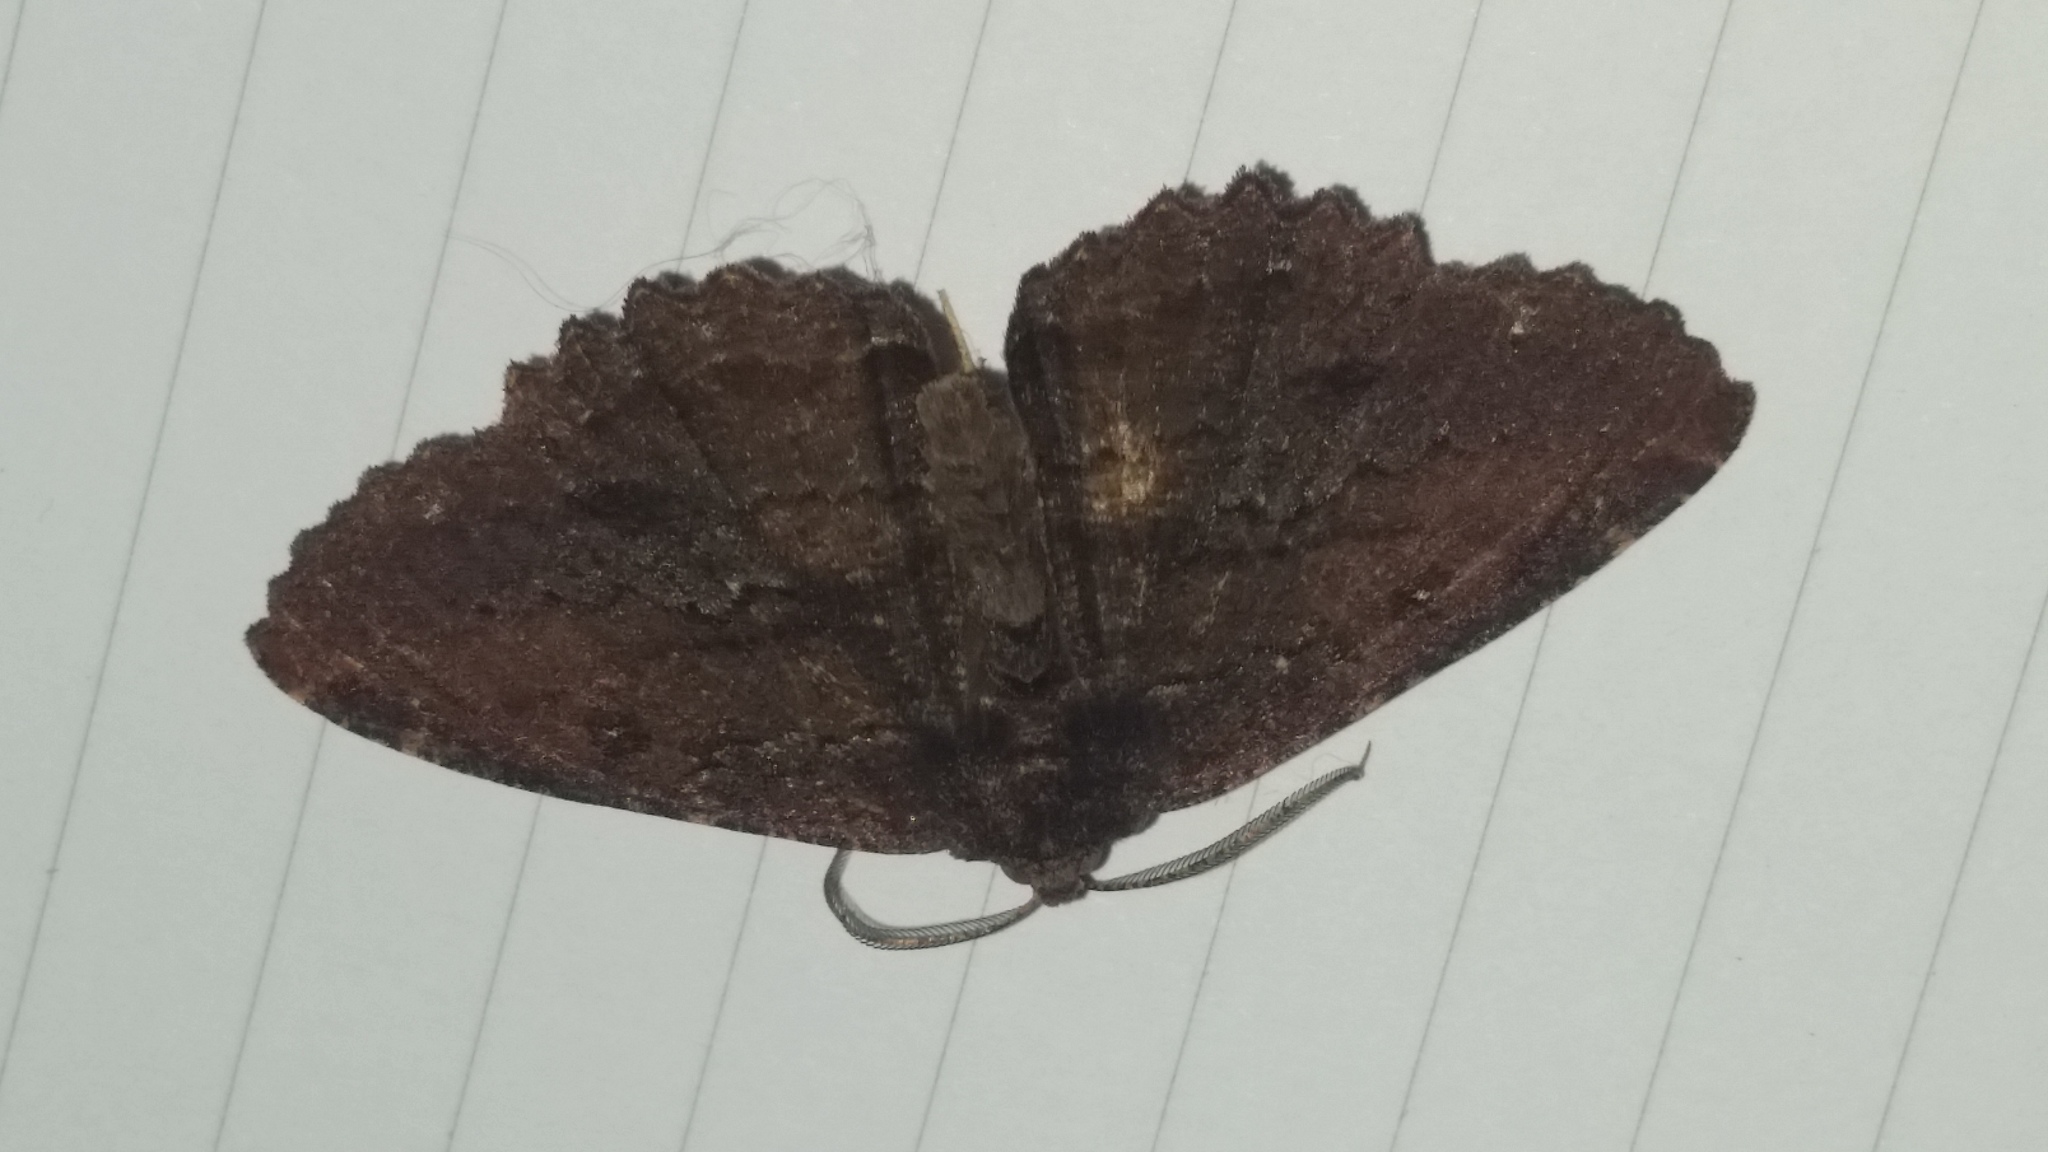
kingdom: Animalia
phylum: Arthropoda
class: Insecta
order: Lepidoptera
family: Geometridae
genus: Gellonia
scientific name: Gellonia dejectaria
